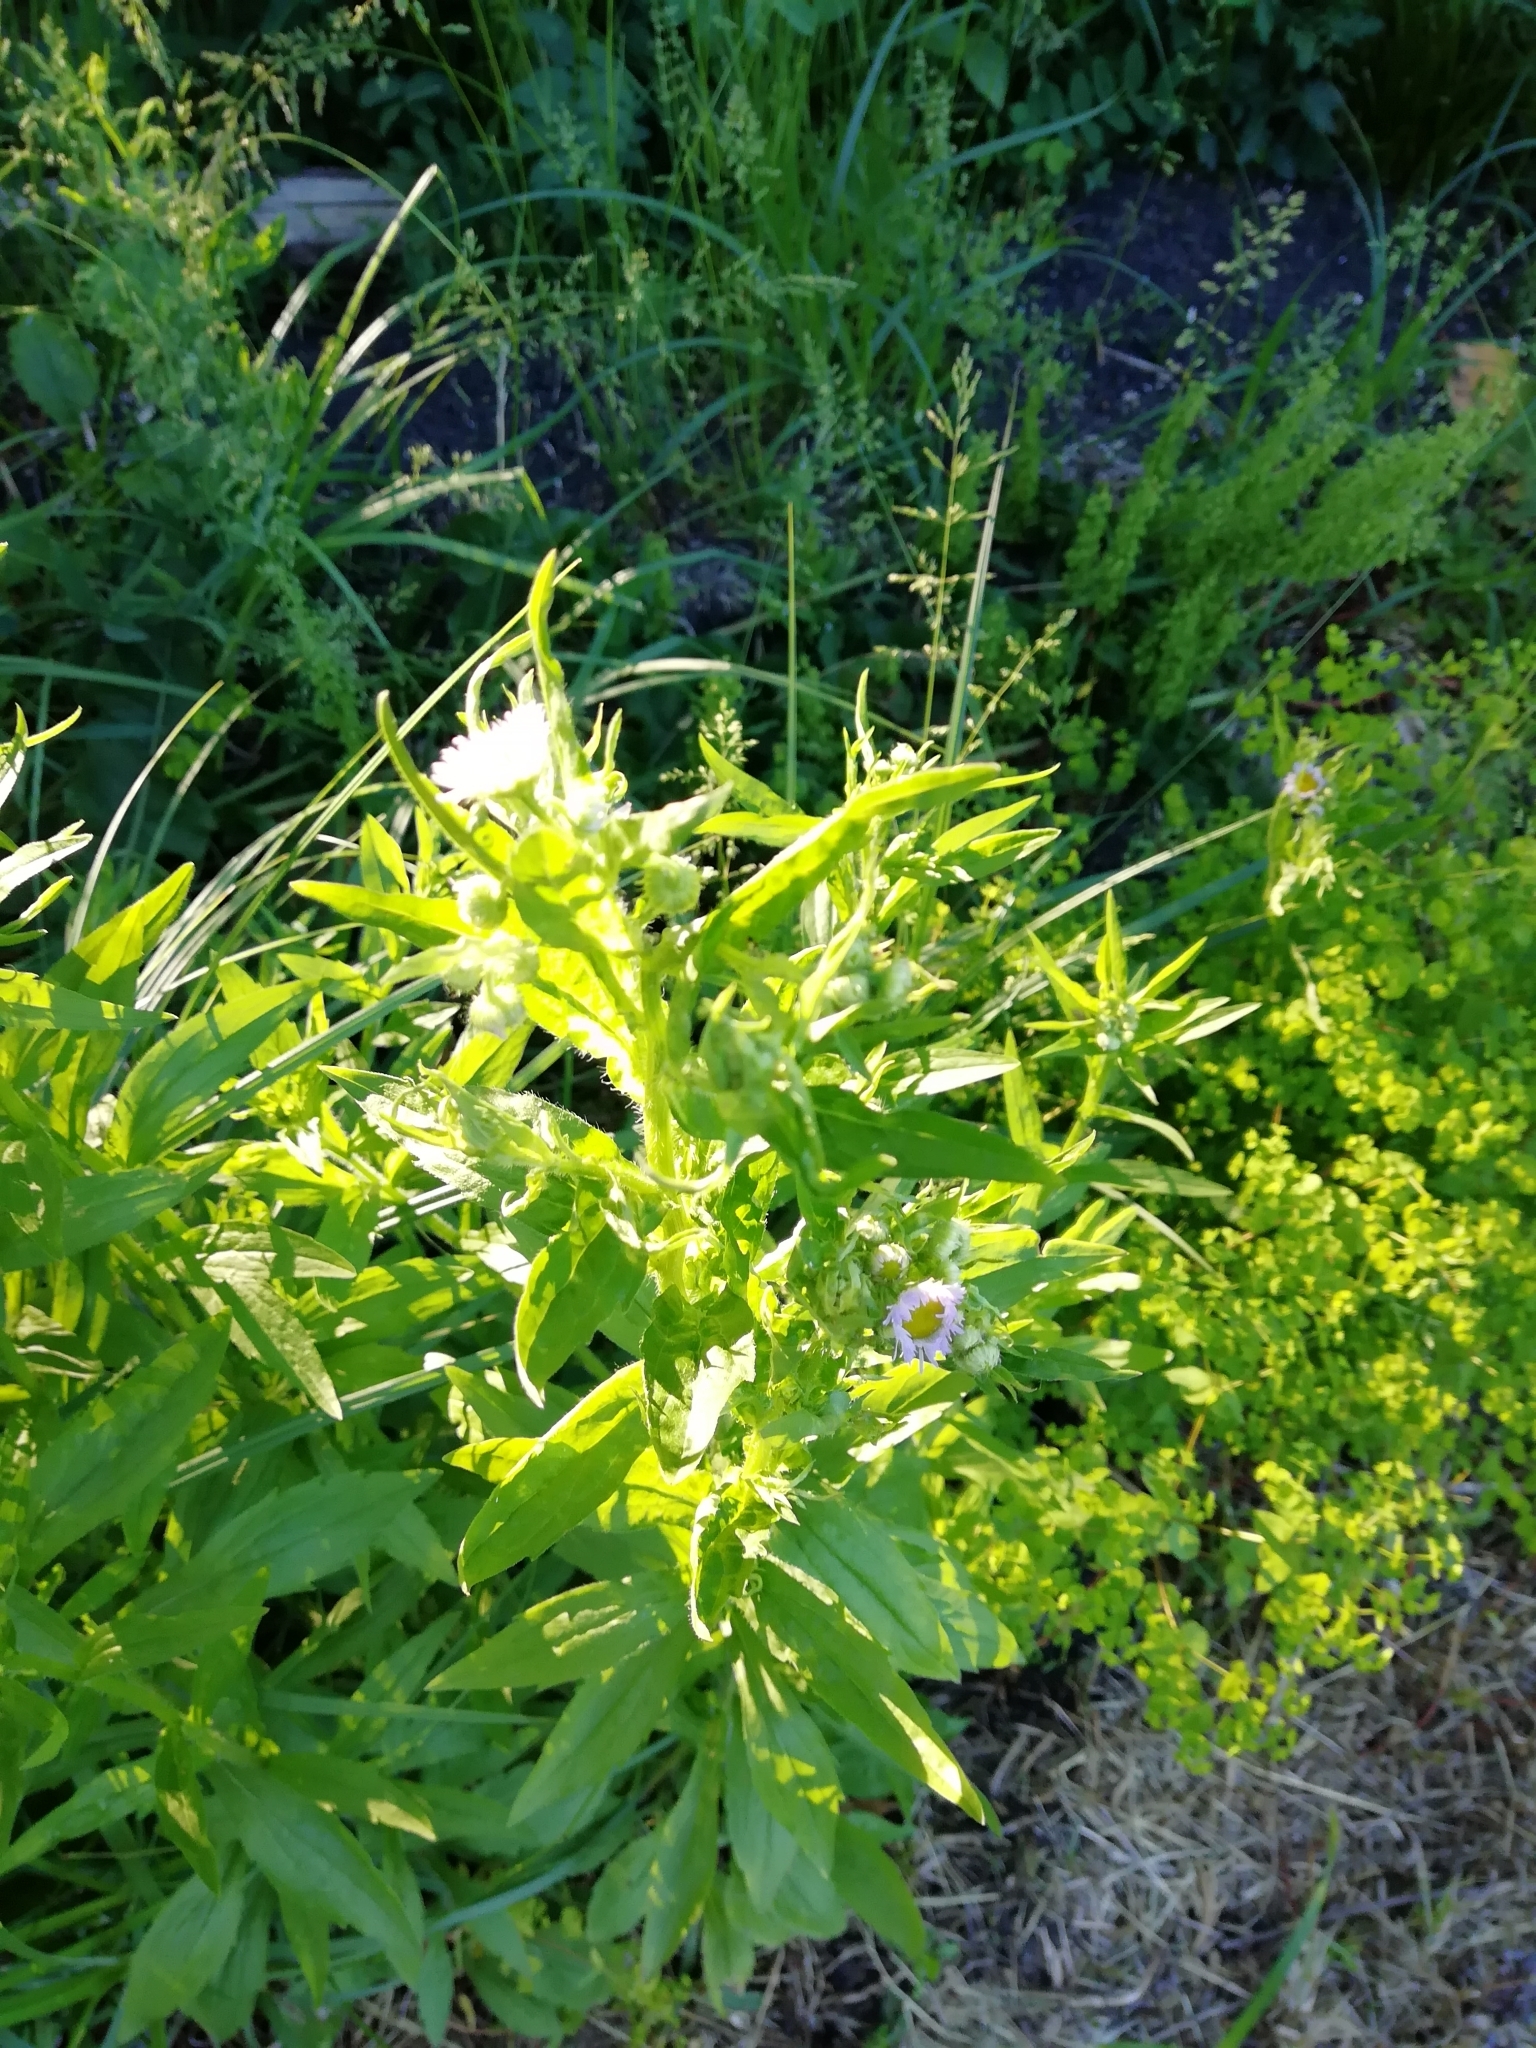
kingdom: Plantae
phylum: Tracheophyta
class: Magnoliopsida
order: Asterales
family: Asteraceae
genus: Erigeron
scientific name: Erigeron annuus
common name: Tall fleabane
